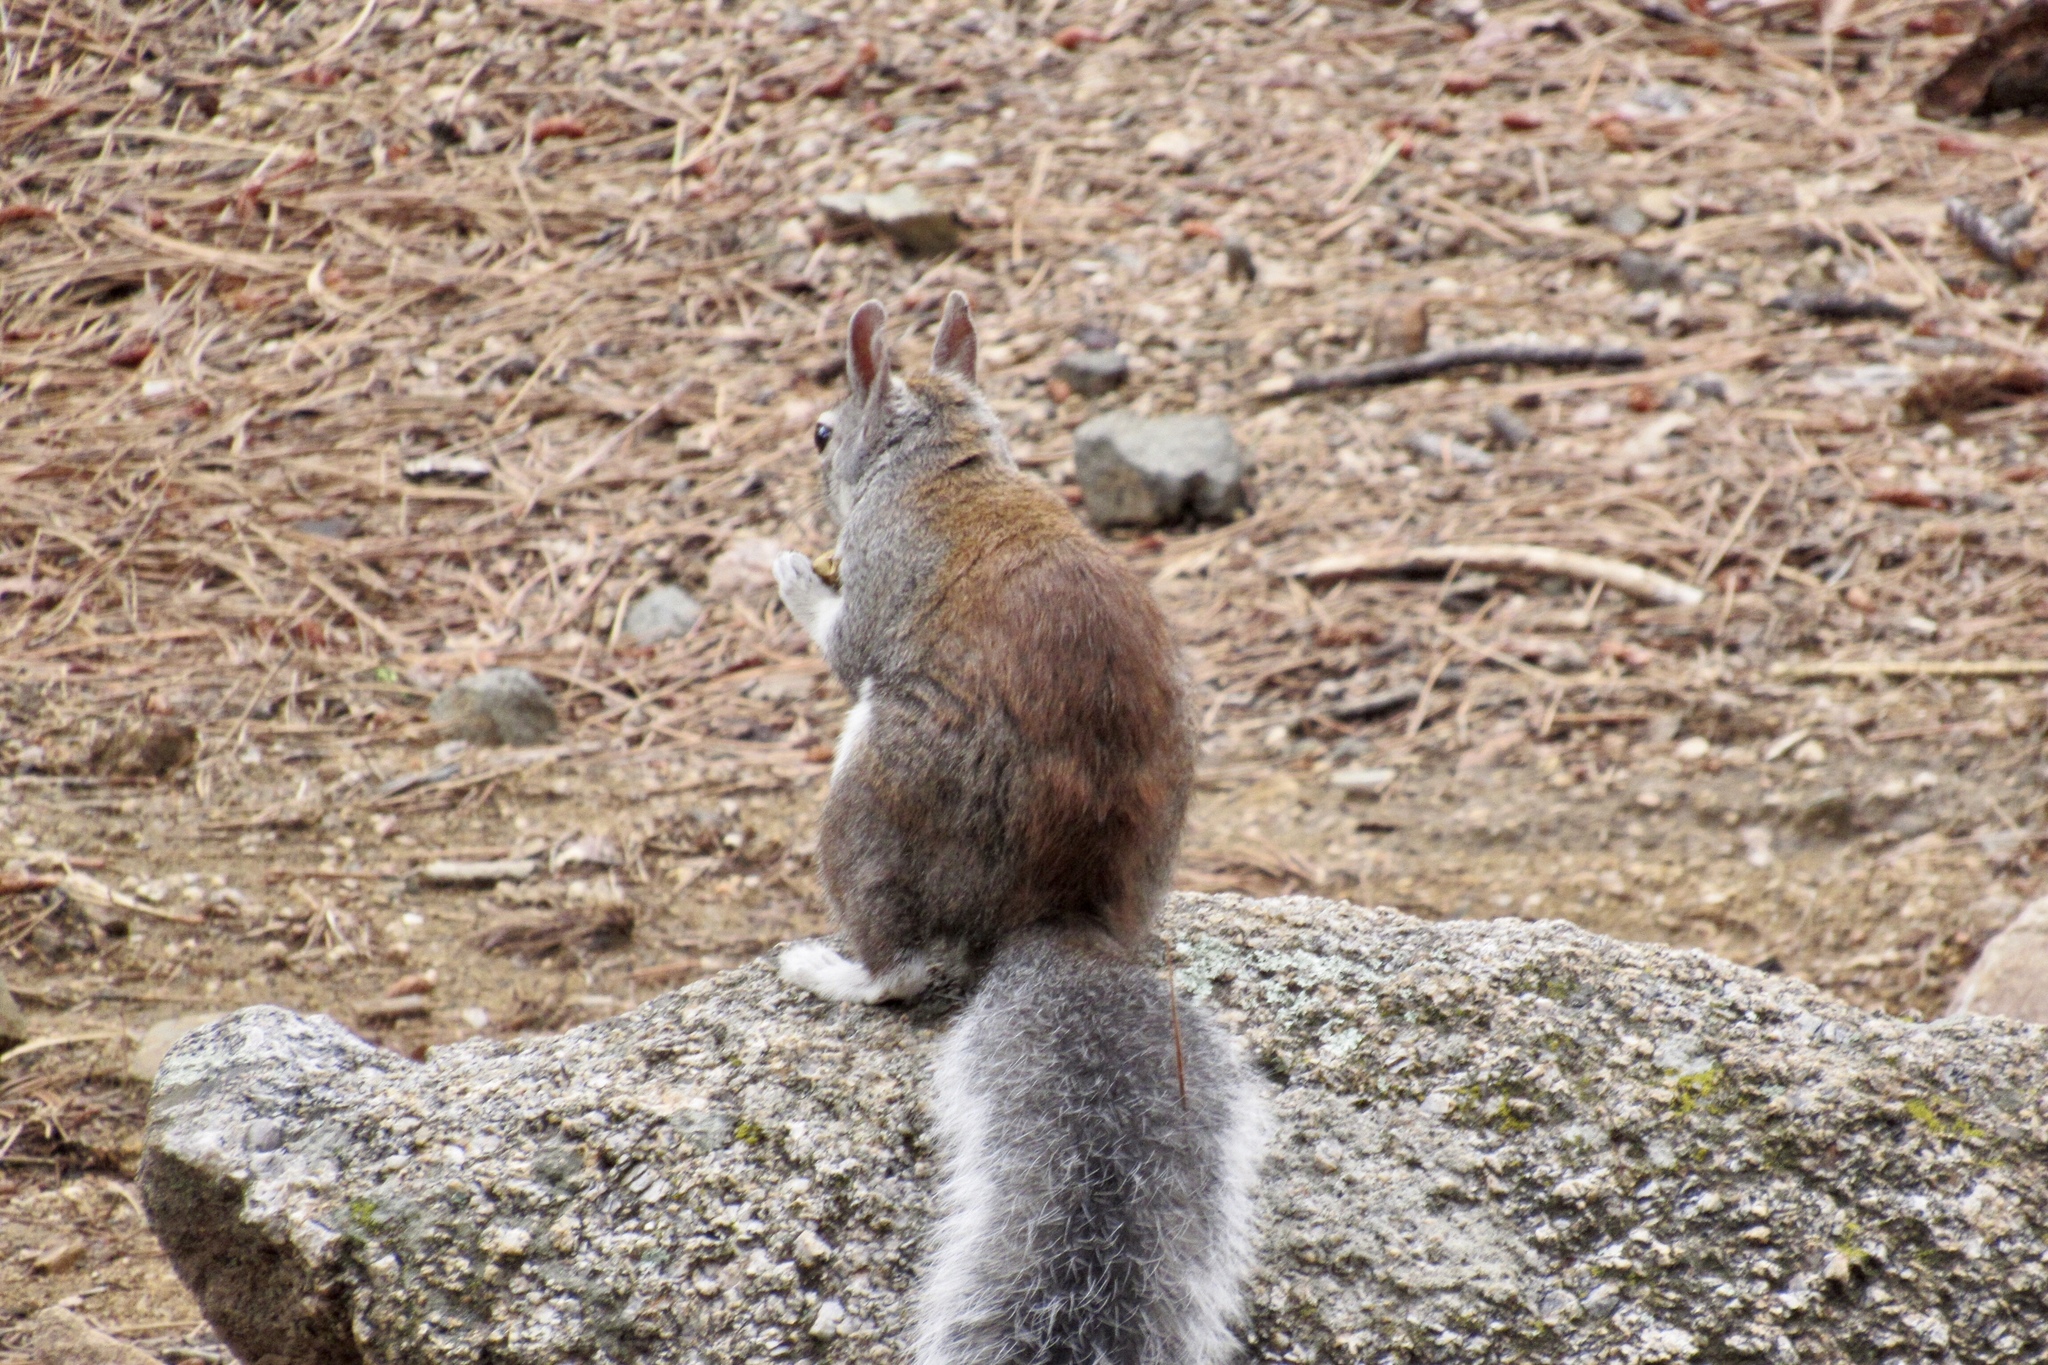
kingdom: Animalia
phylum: Chordata
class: Mammalia
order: Rodentia
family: Sciuridae
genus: Sciurus
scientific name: Sciurus aberti
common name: Abert's squirrel
